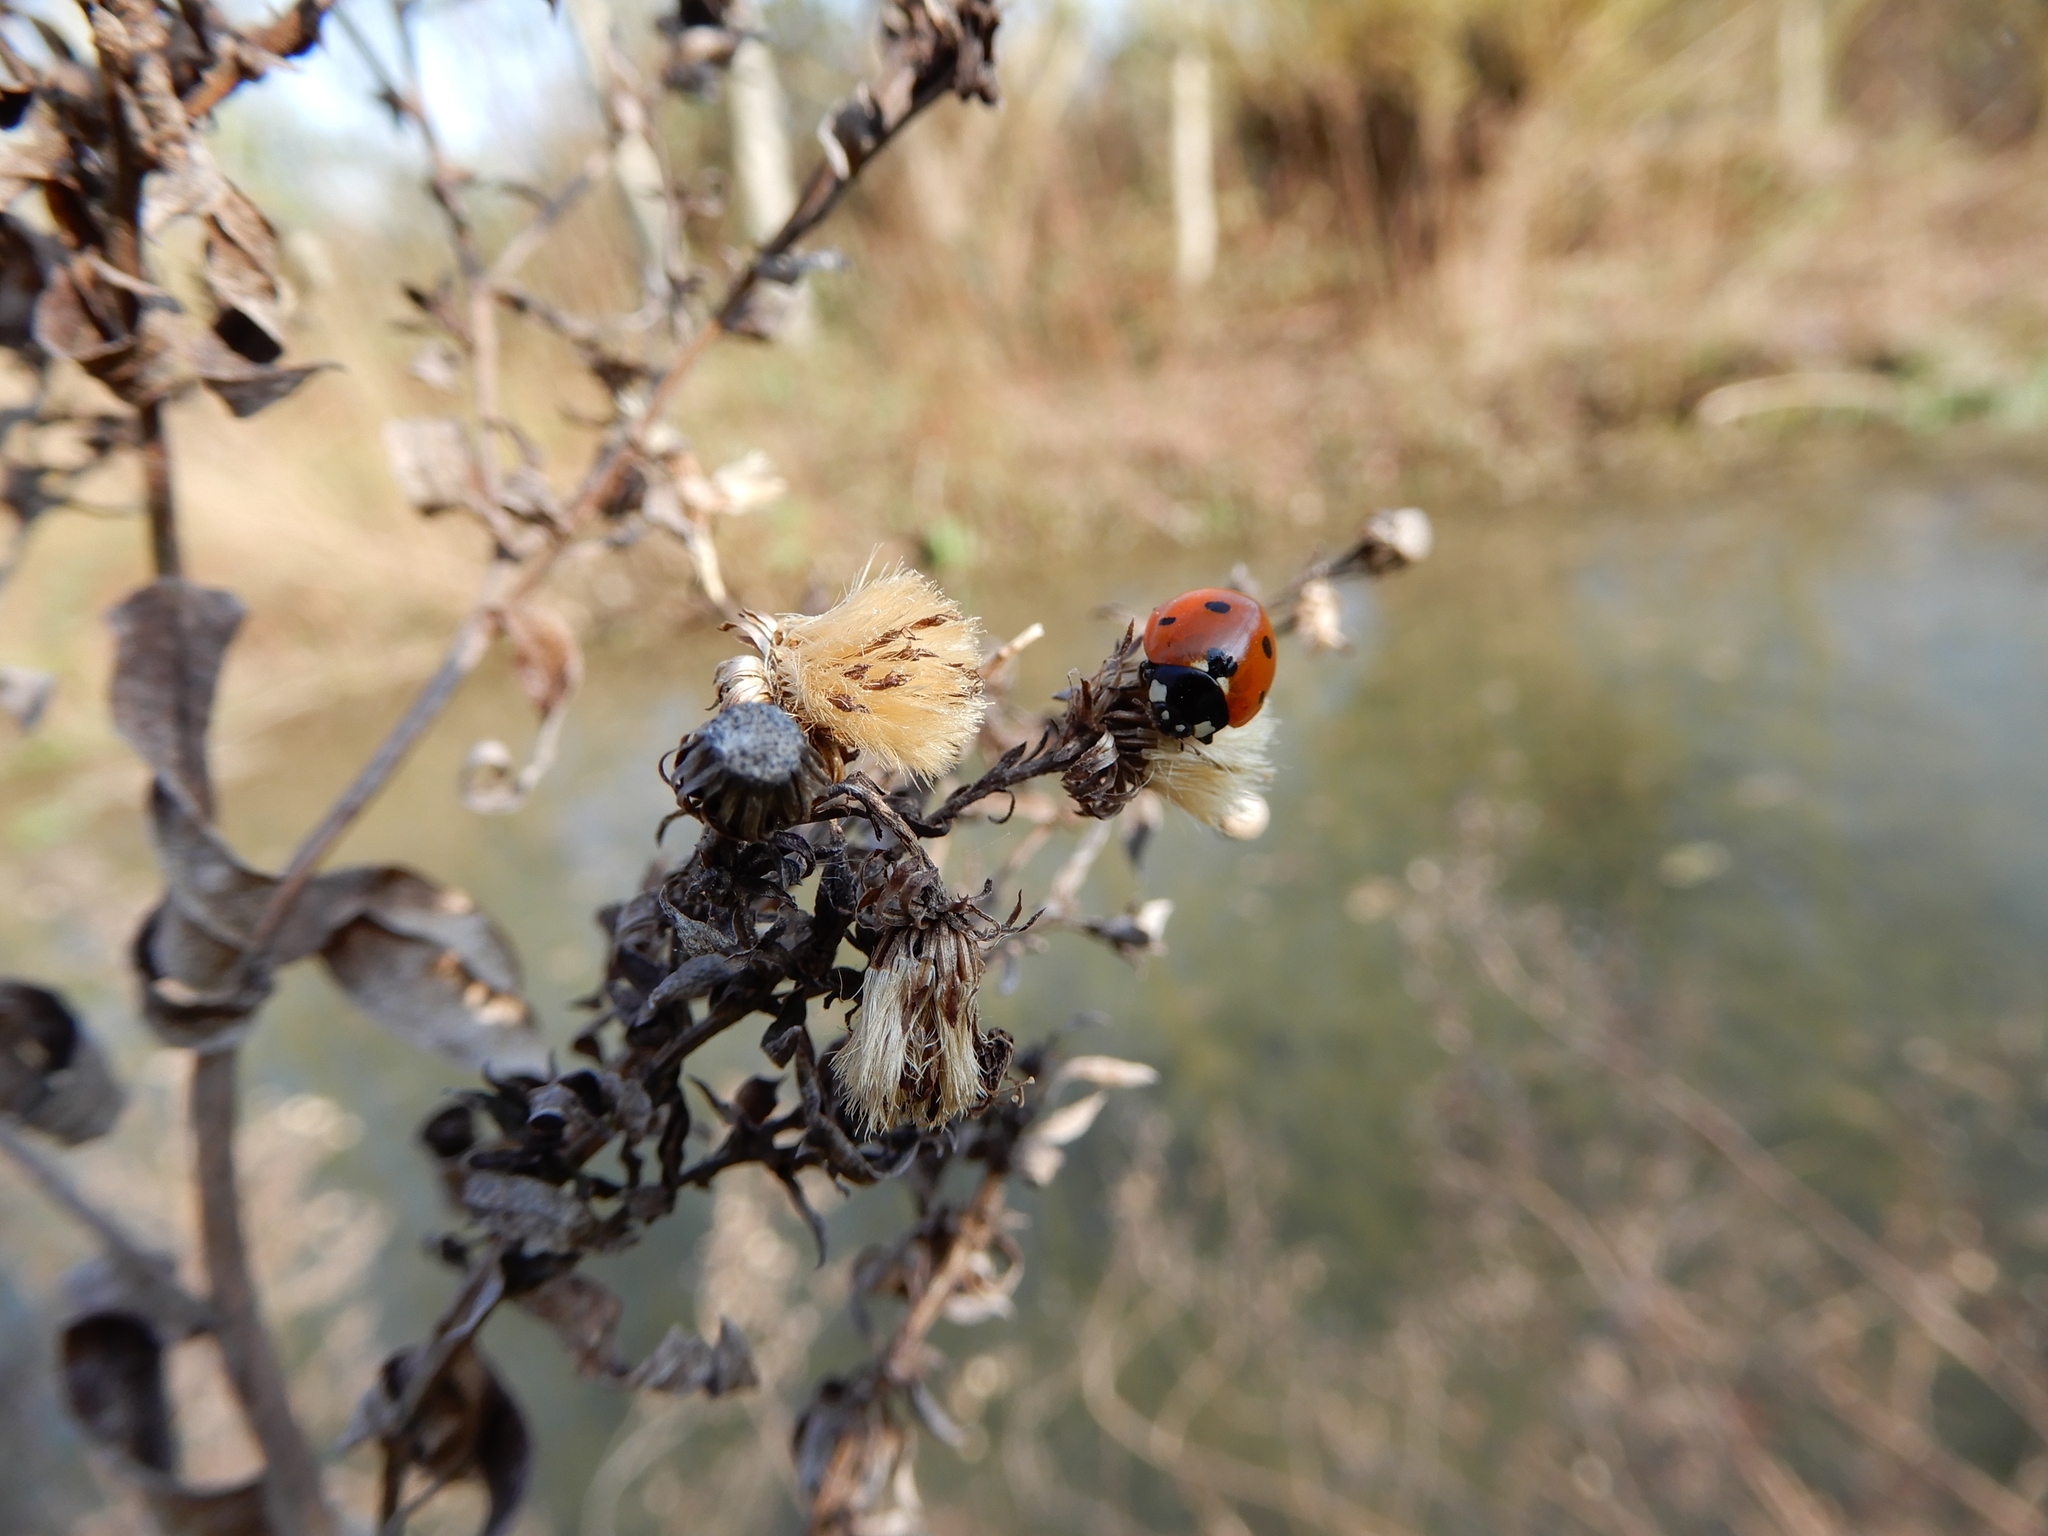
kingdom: Animalia
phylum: Arthropoda
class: Insecta
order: Coleoptera
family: Coccinellidae
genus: Coccinella
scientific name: Coccinella septempunctata
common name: Sevenspotted lady beetle
